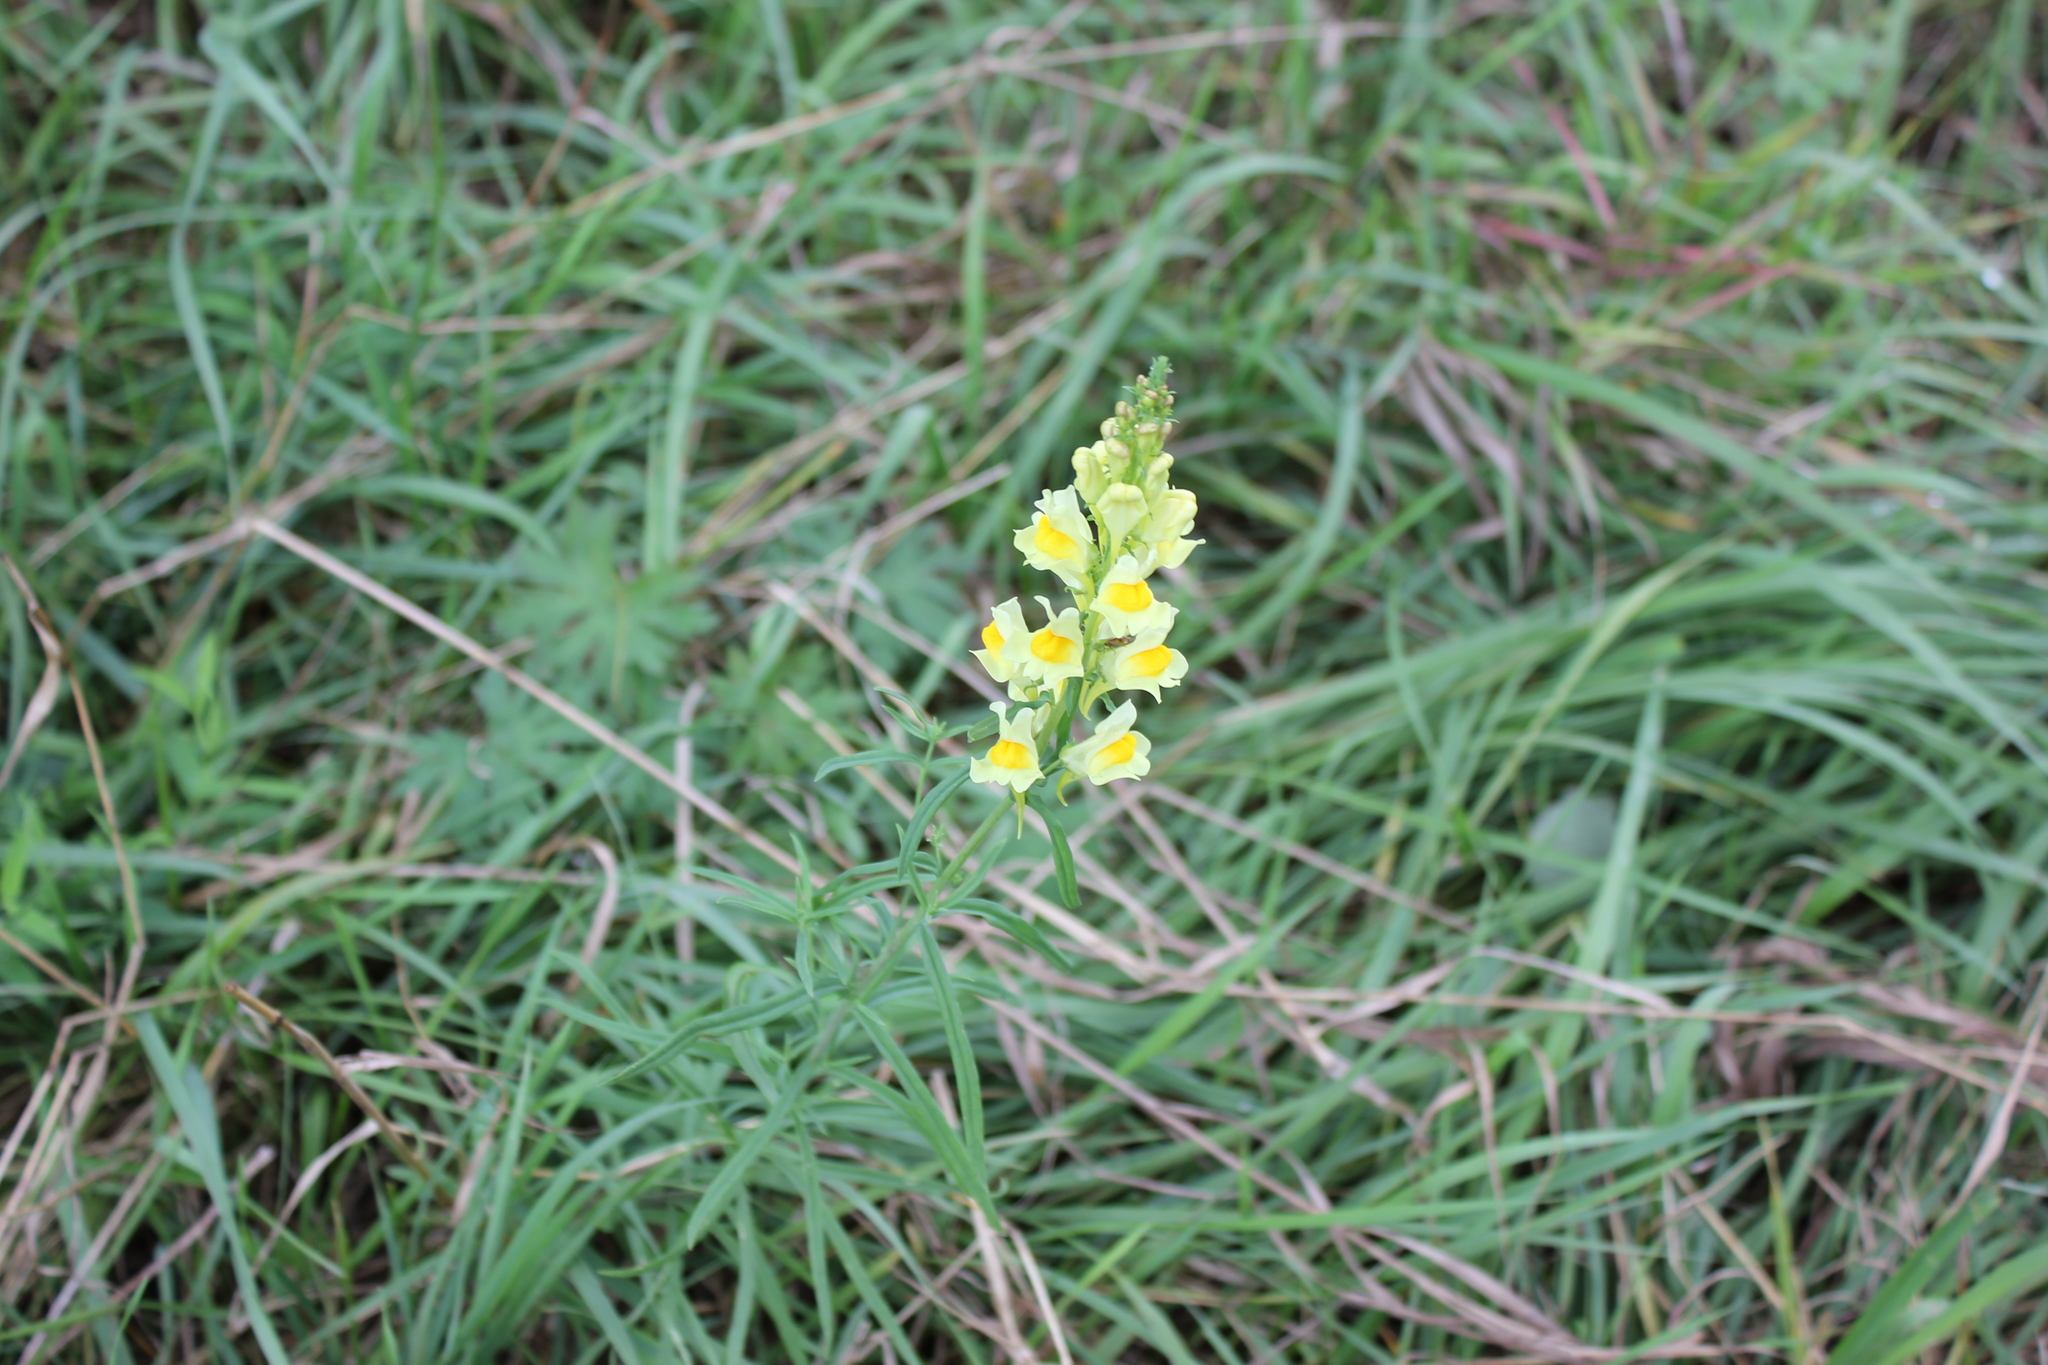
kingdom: Plantae
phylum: Tracheophyta
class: Magnoliopsida
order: Lamiales
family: Plantaginaceae
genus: Linaria
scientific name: Linaria vulgaris
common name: Butter and eggs
